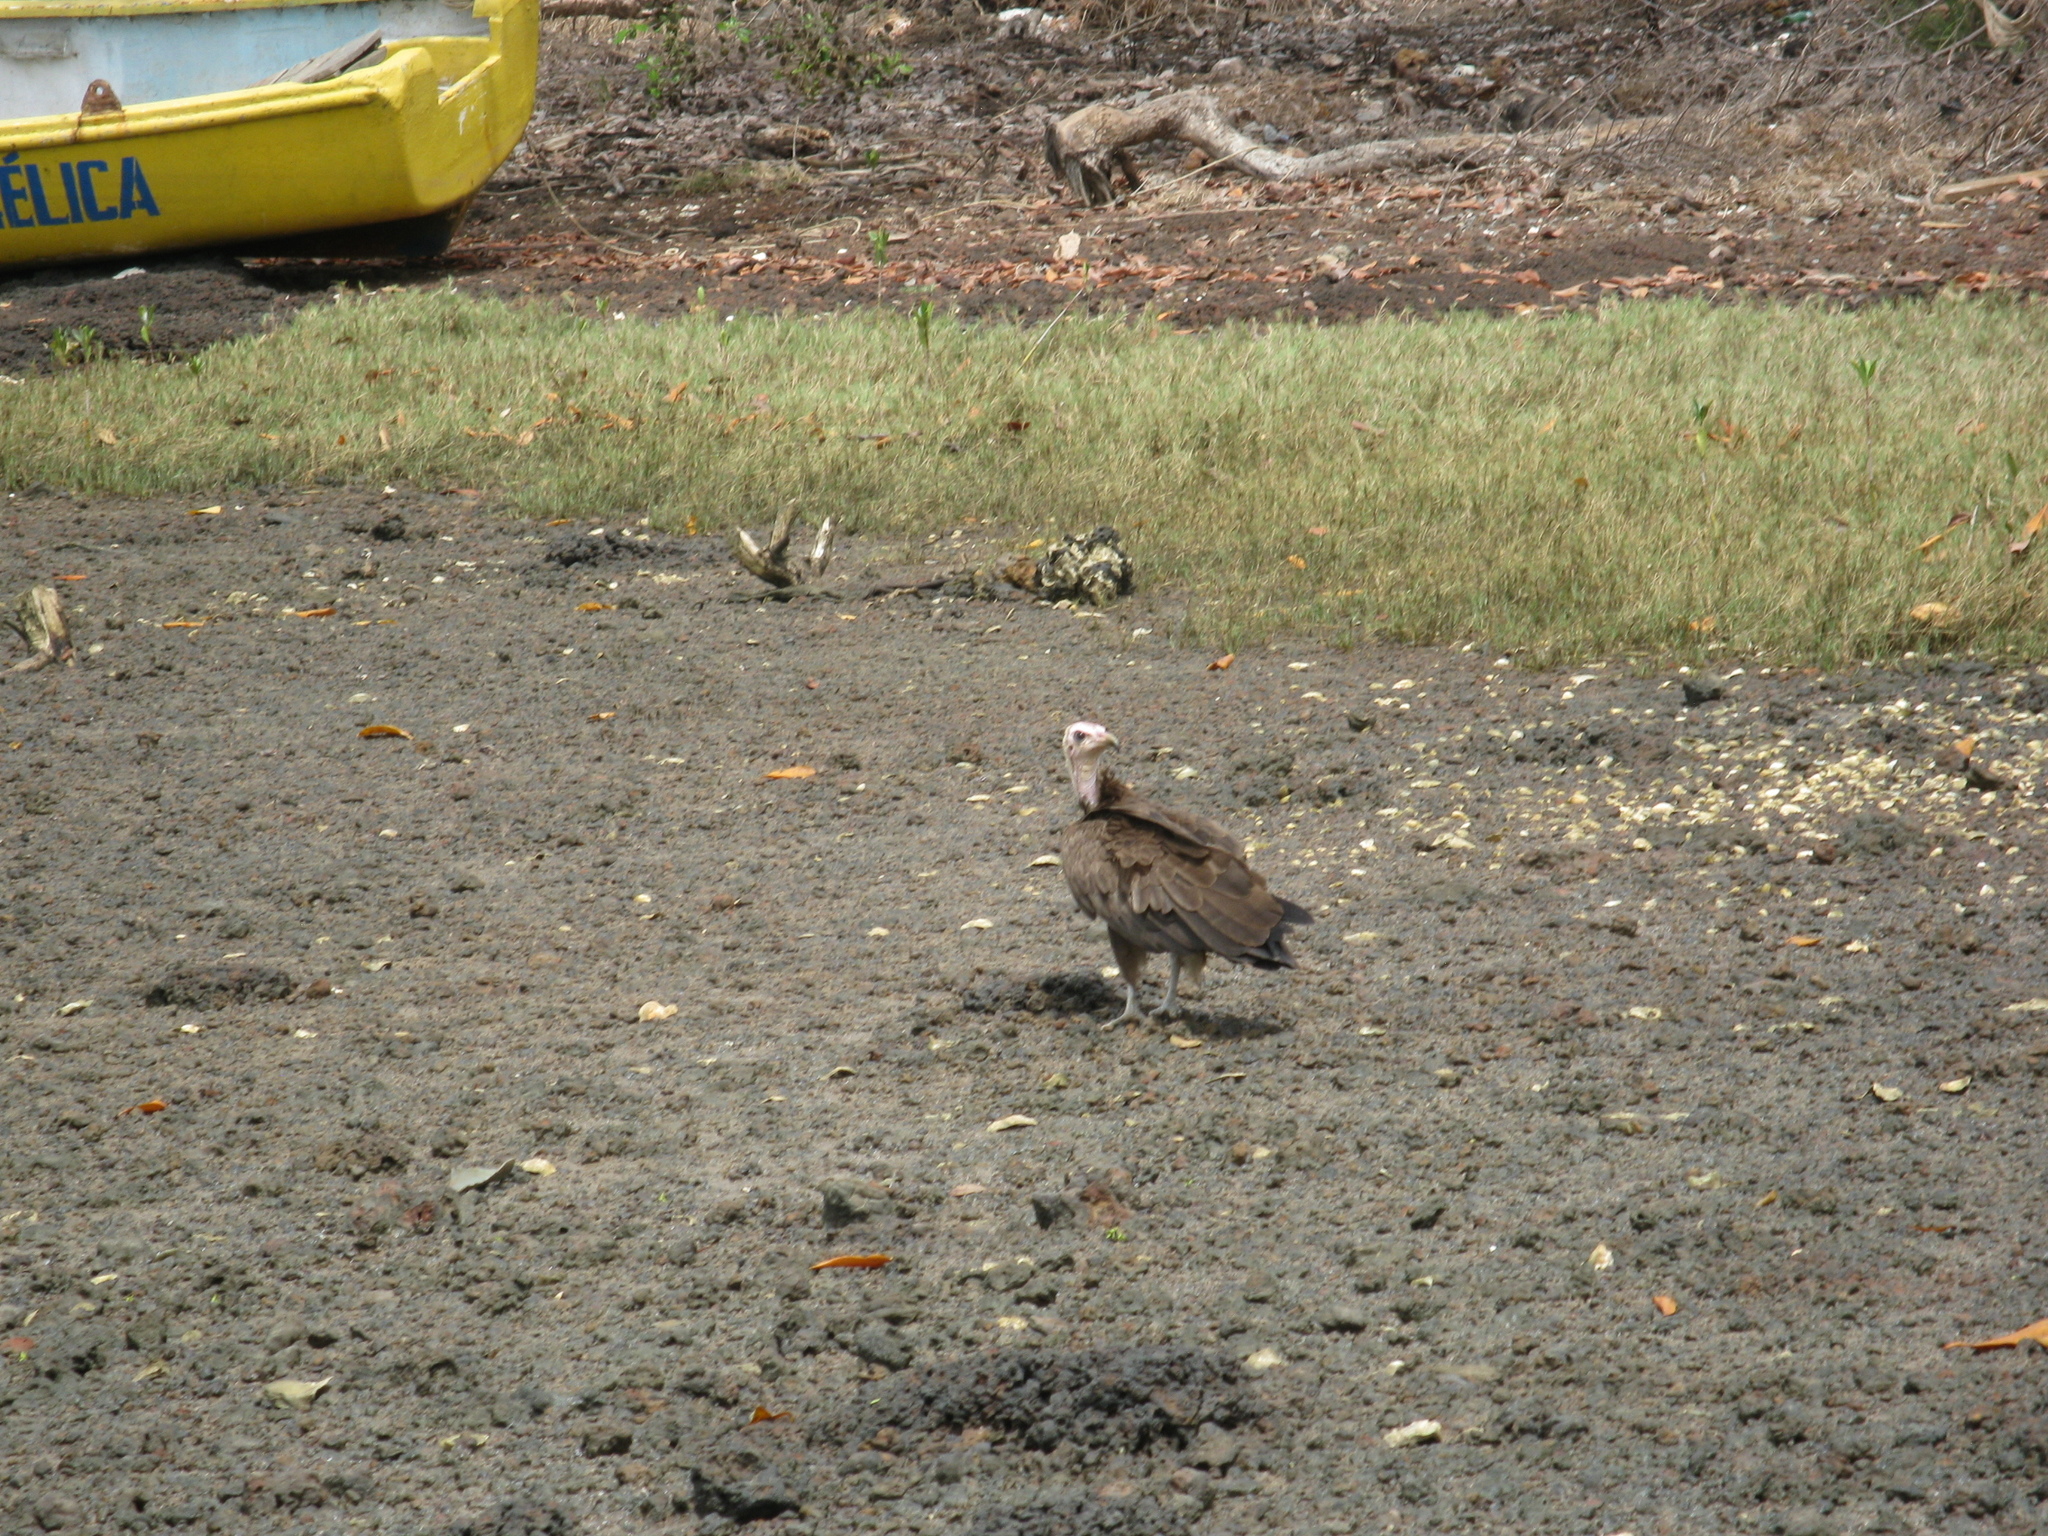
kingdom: Animalia
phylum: Chordata
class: Aves
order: Accipitriformes
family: Accipitridae
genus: Necrosyrtes
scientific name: Necrosyrtes monachus
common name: Hooded vulture
